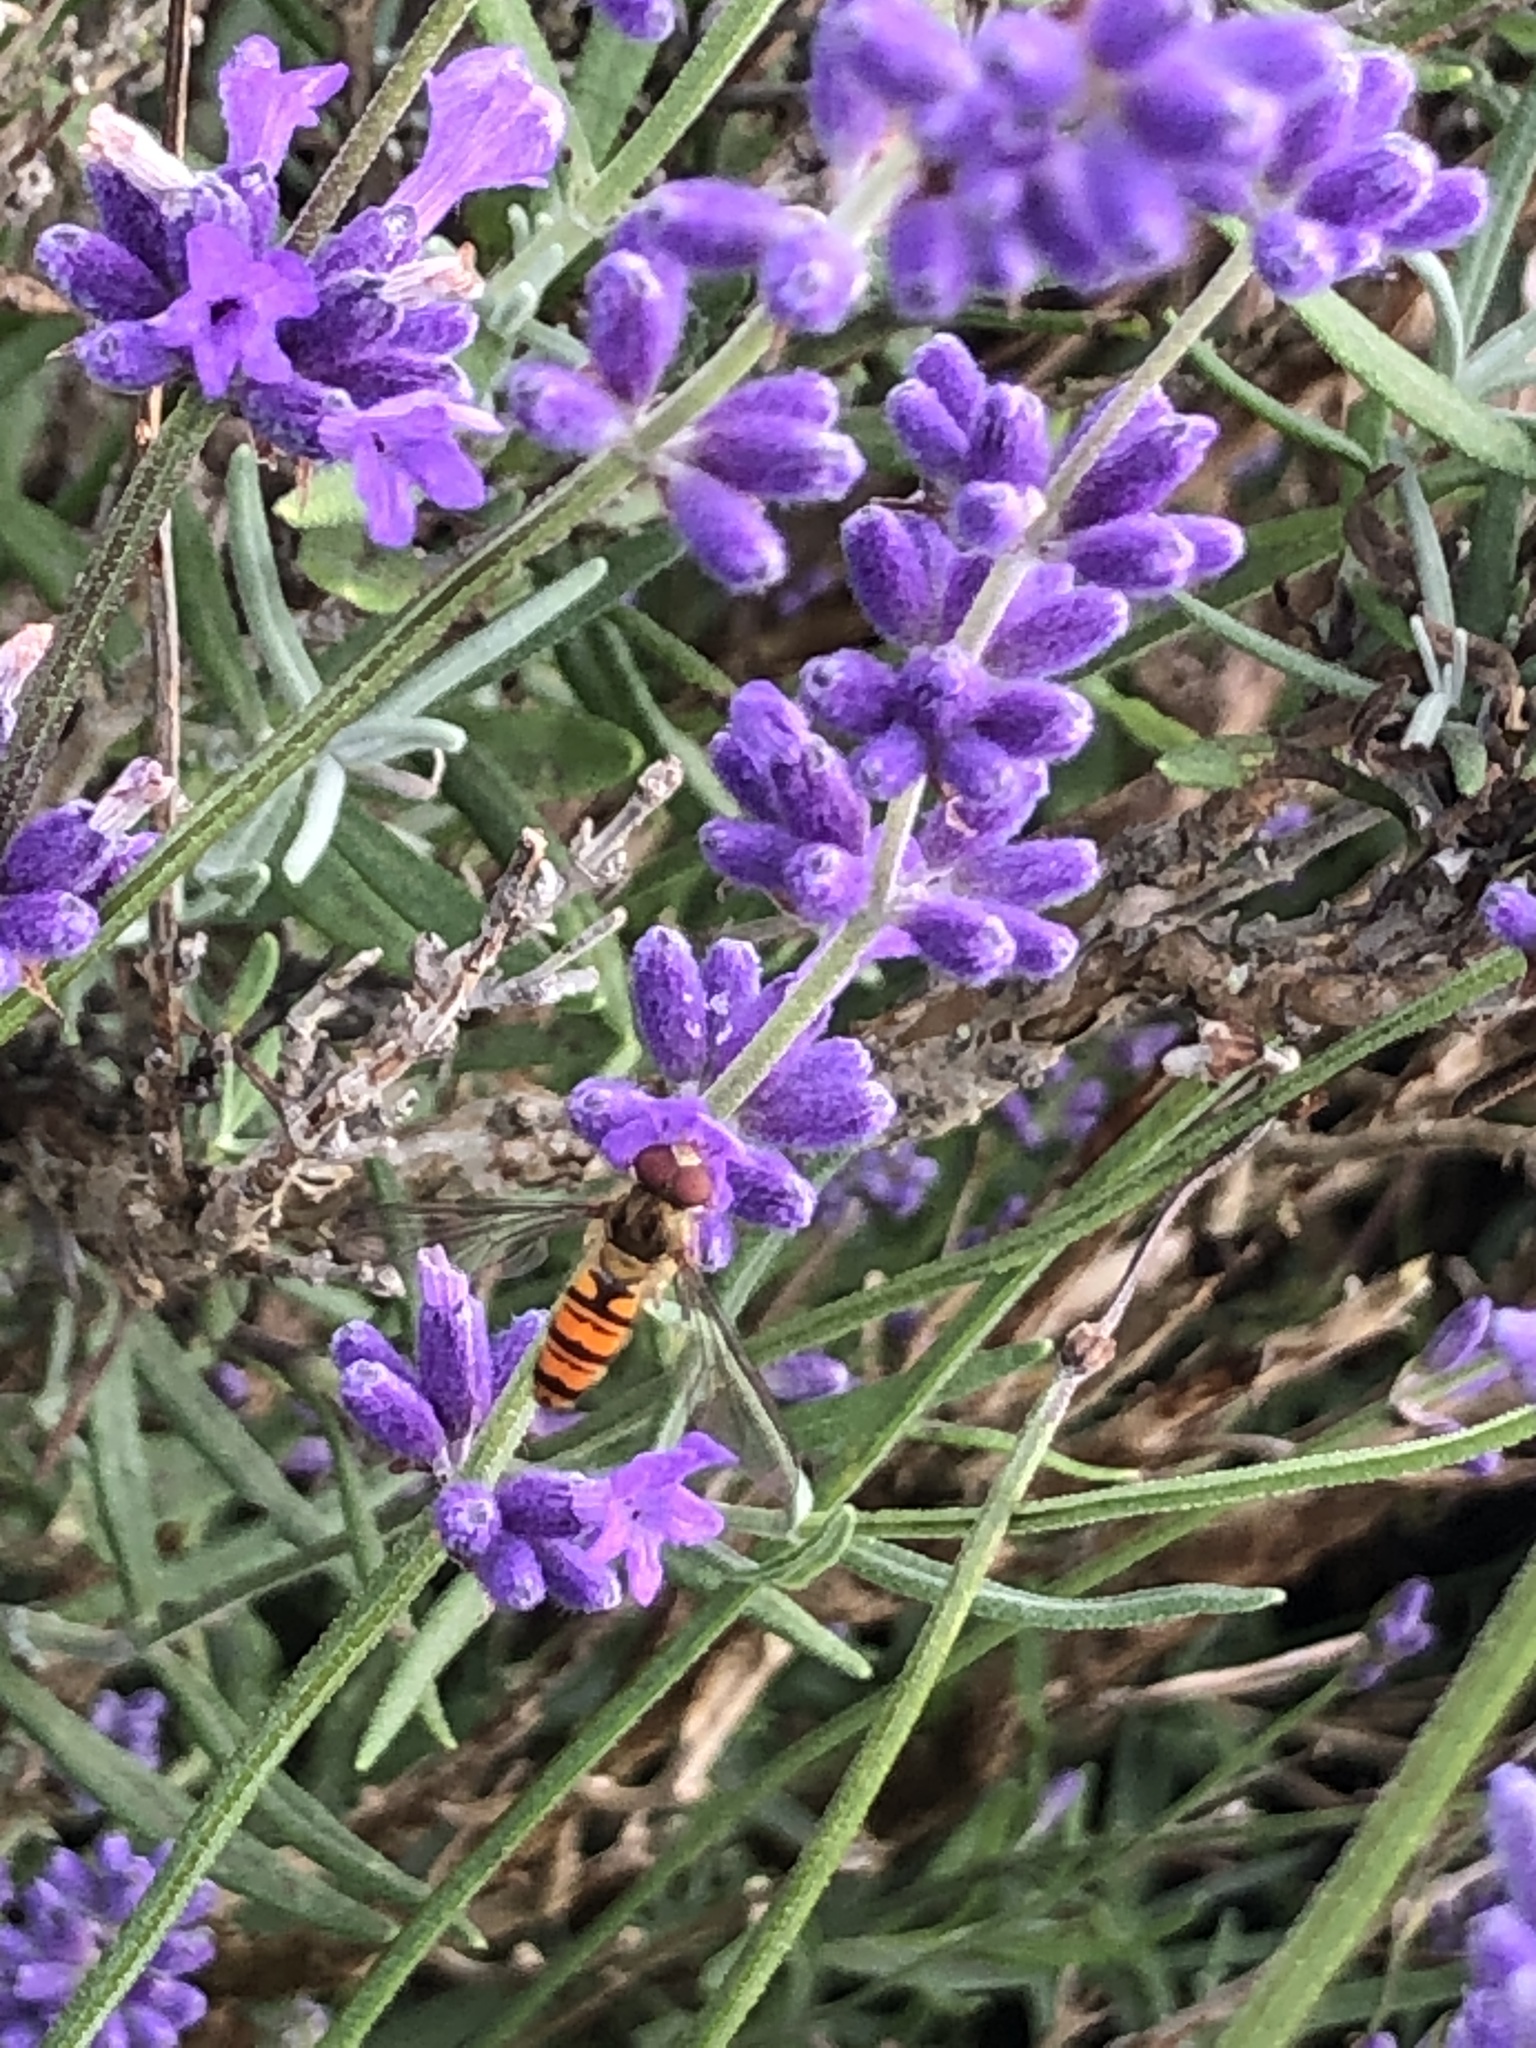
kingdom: Animalia
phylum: Arthropoda
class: Insecta
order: Diptera
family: Syrphidae
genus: Episyrphus
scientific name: Episyrphus balteatus
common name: Marmalade hoverfly
